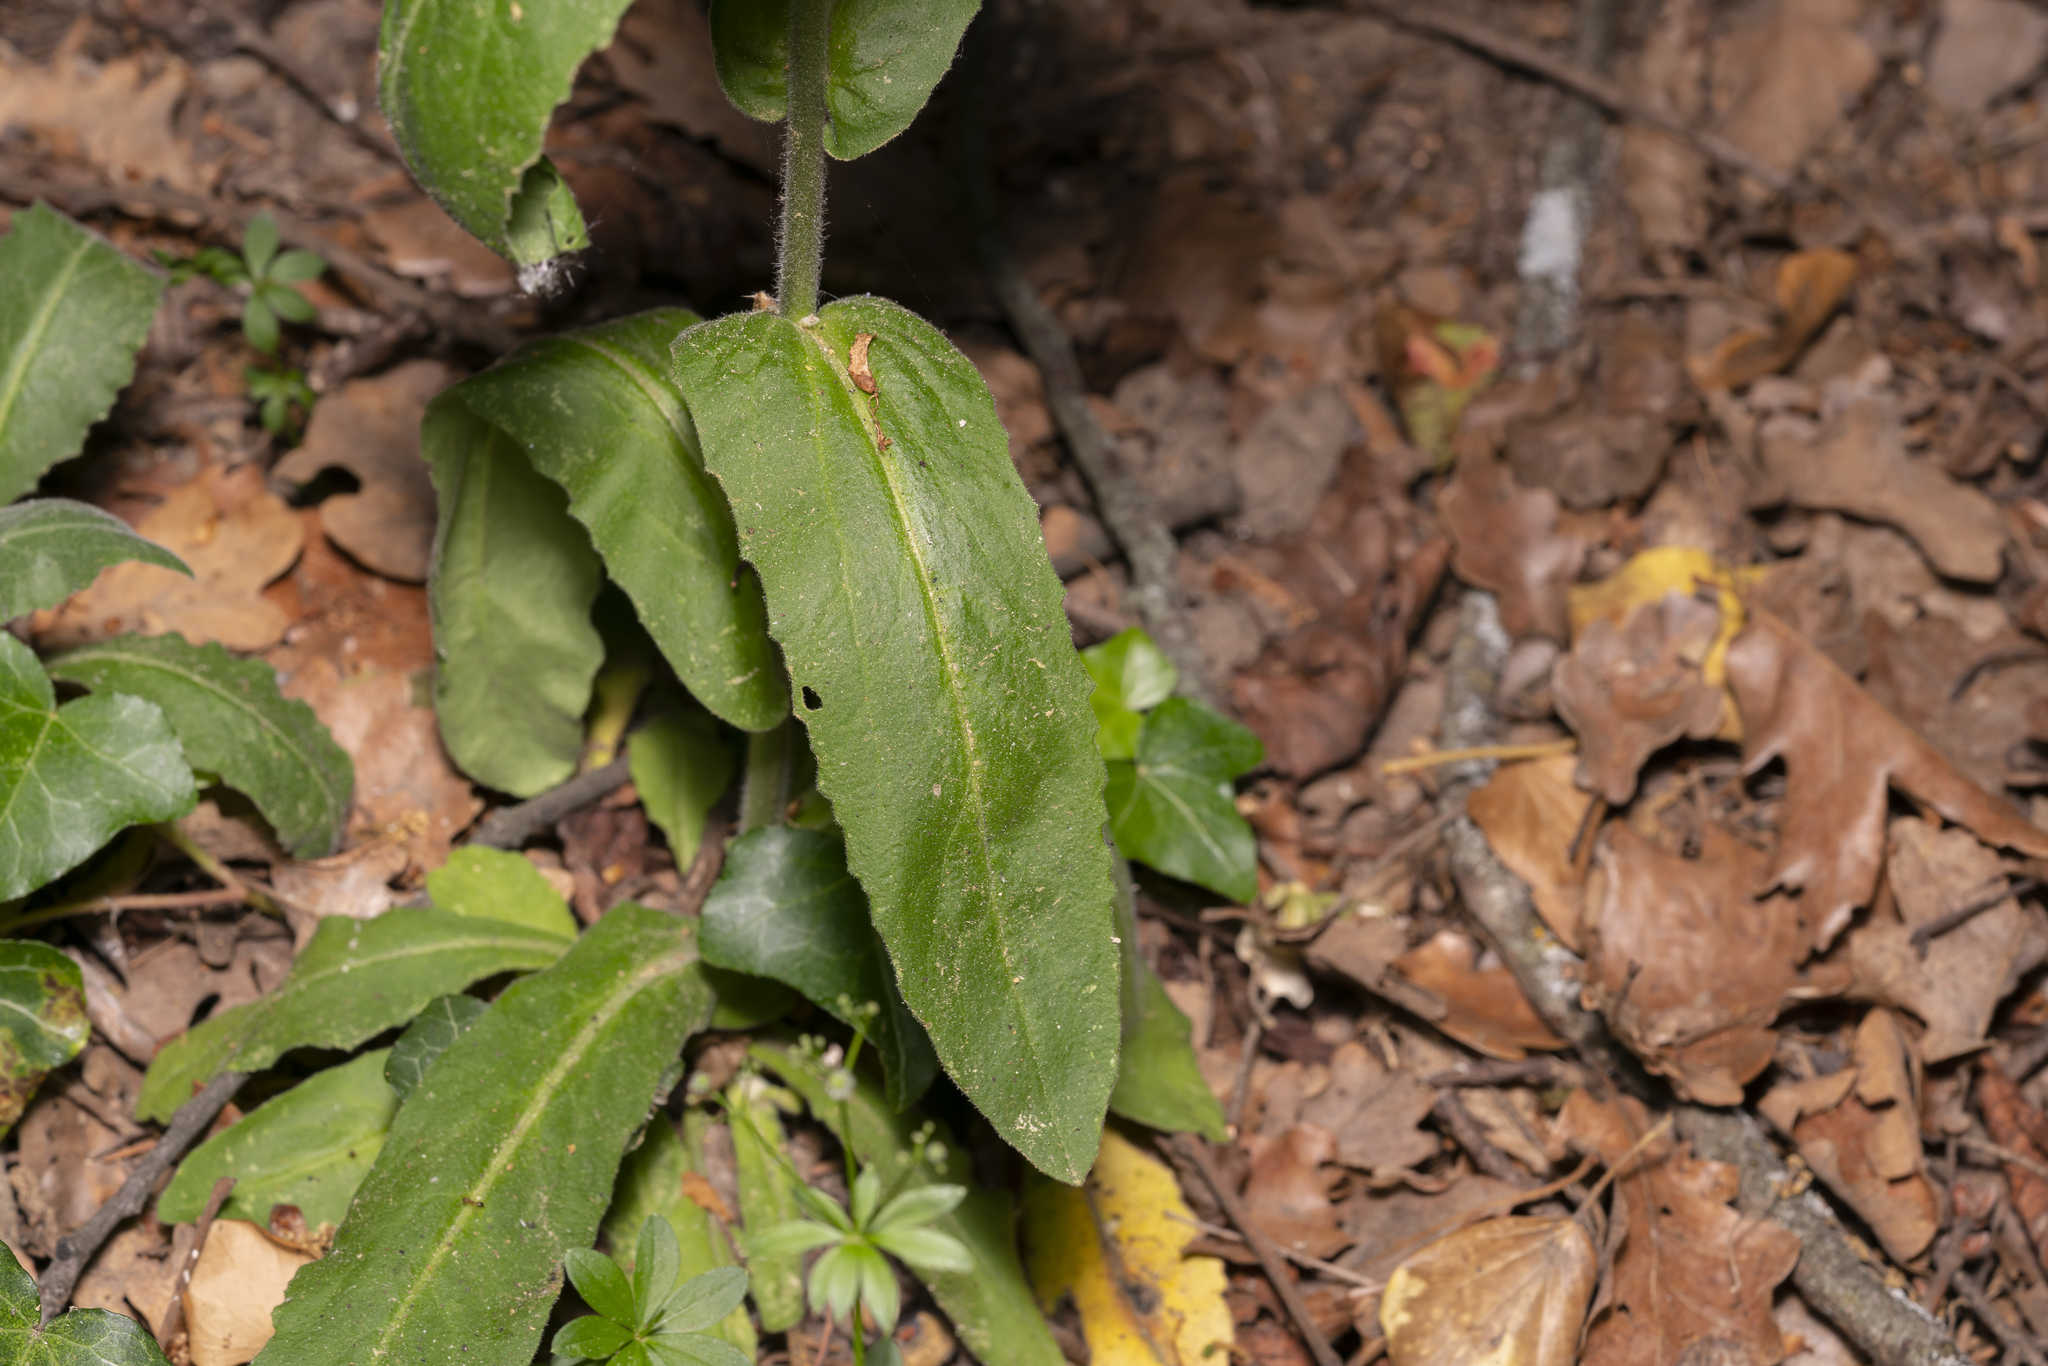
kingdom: Plantae
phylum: Tracheophyta
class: Magnoliopsida
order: Brassicales
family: Brassicaceae
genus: Pseudoturritis
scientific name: Pseudoturritis turrita
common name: Tower cress
